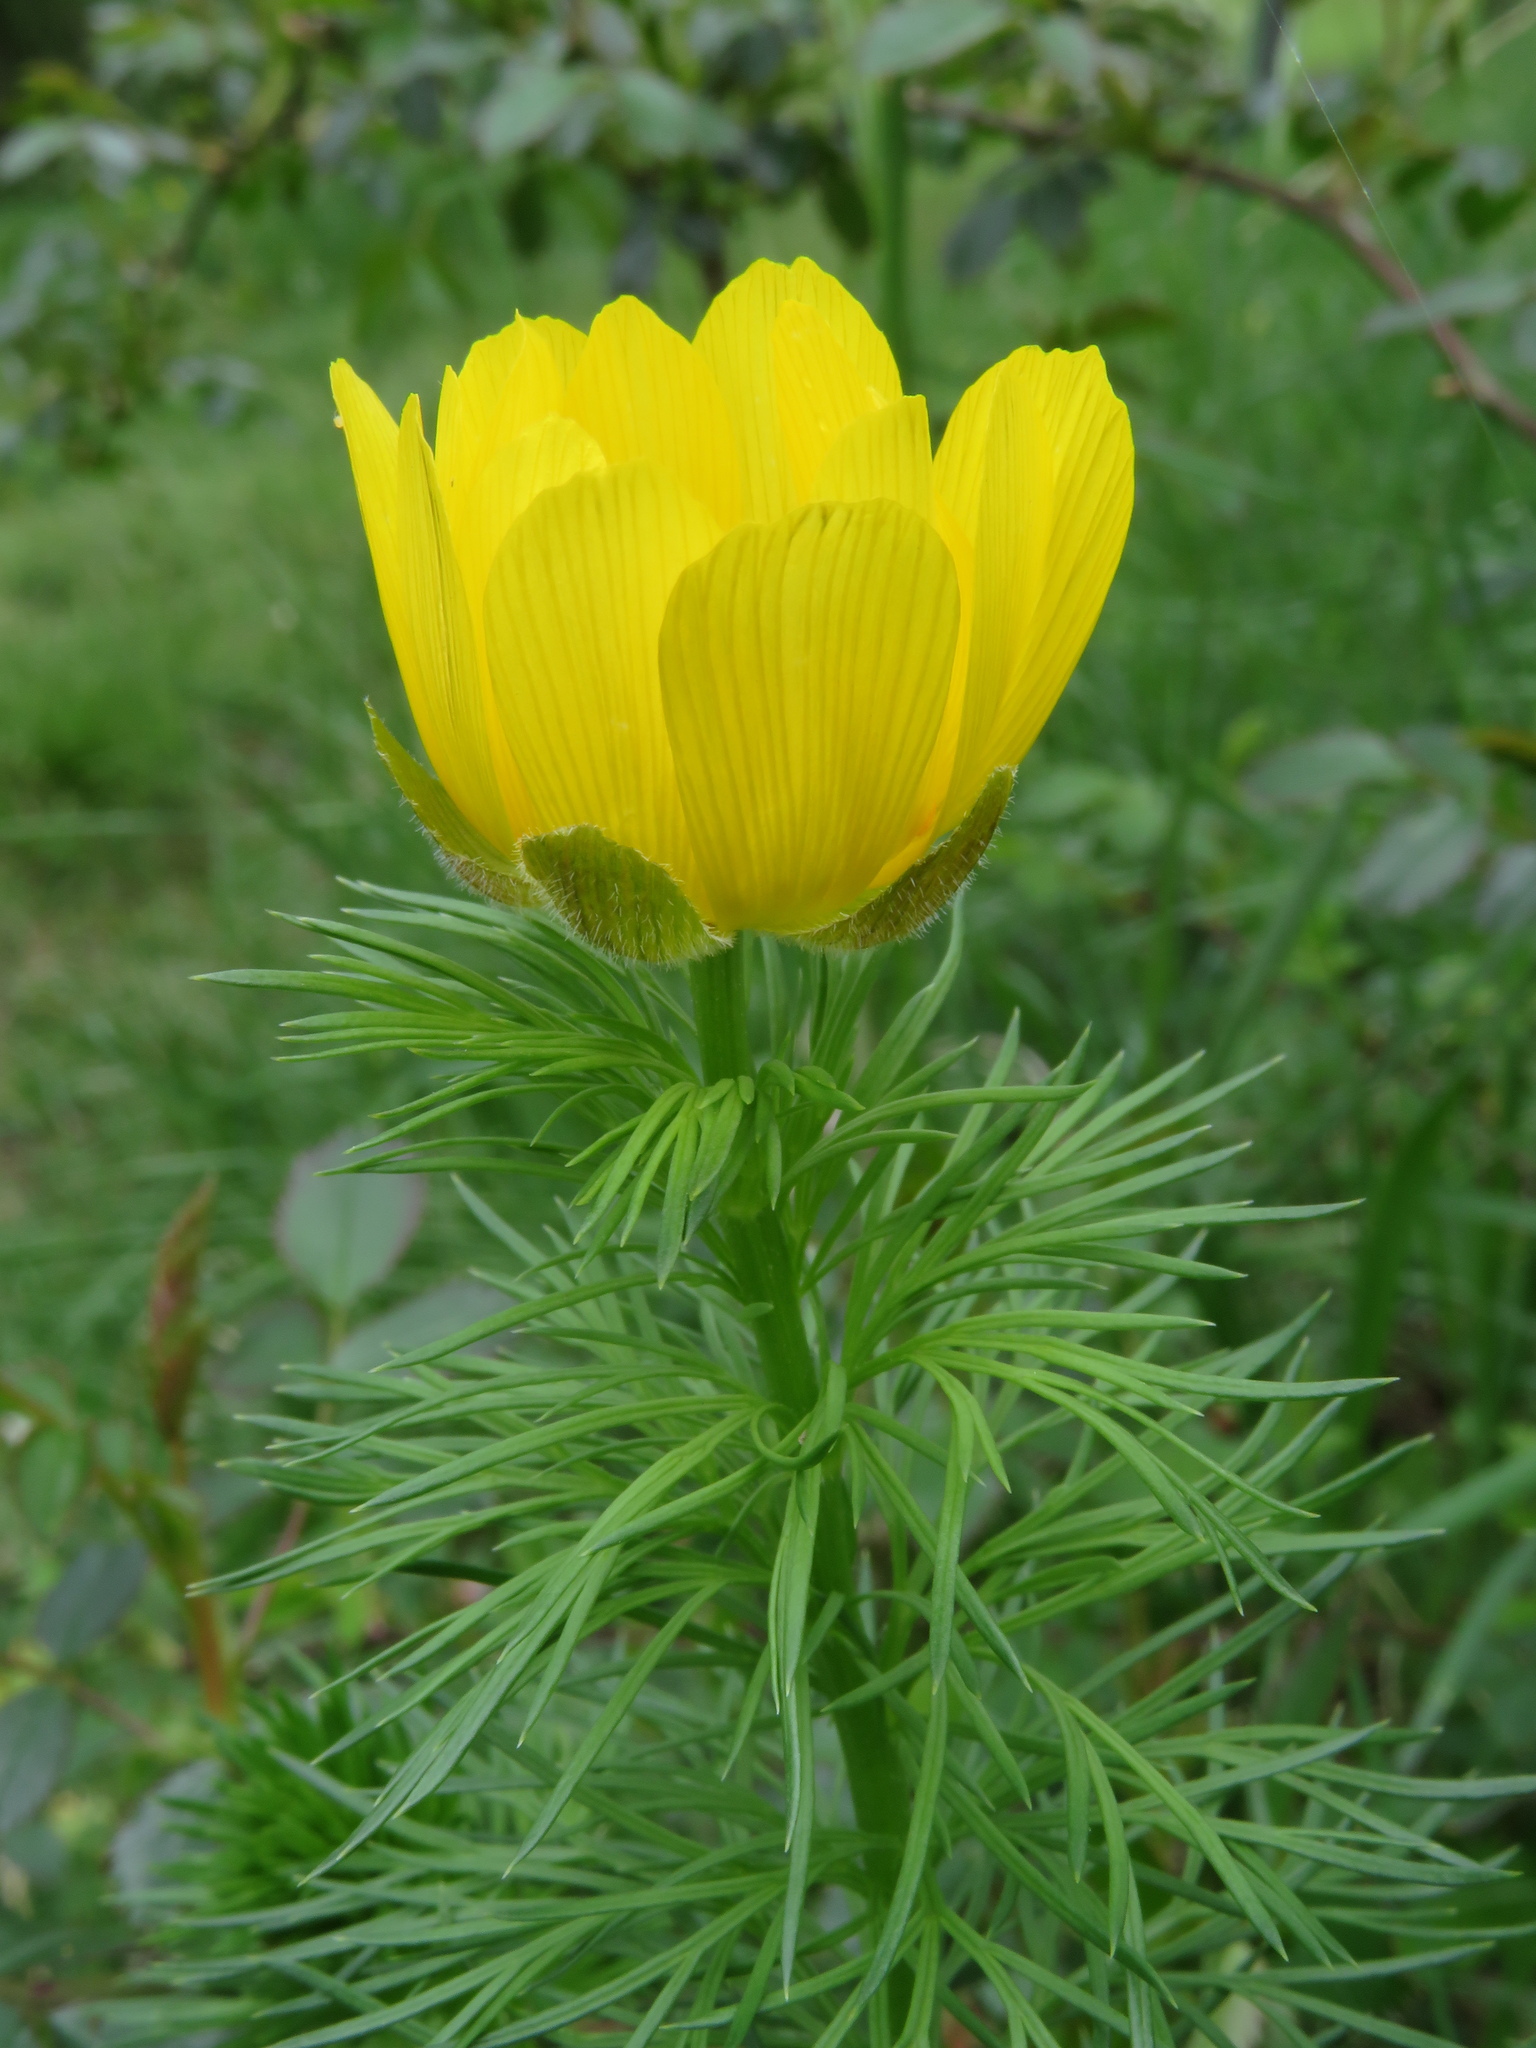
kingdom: Plantae
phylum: Tracheophyta
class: Magnoliopsida
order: Ranunculales
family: Ranunculaceae
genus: Adonis
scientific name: Adonis vernalis
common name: Yellow pheasants-eye
